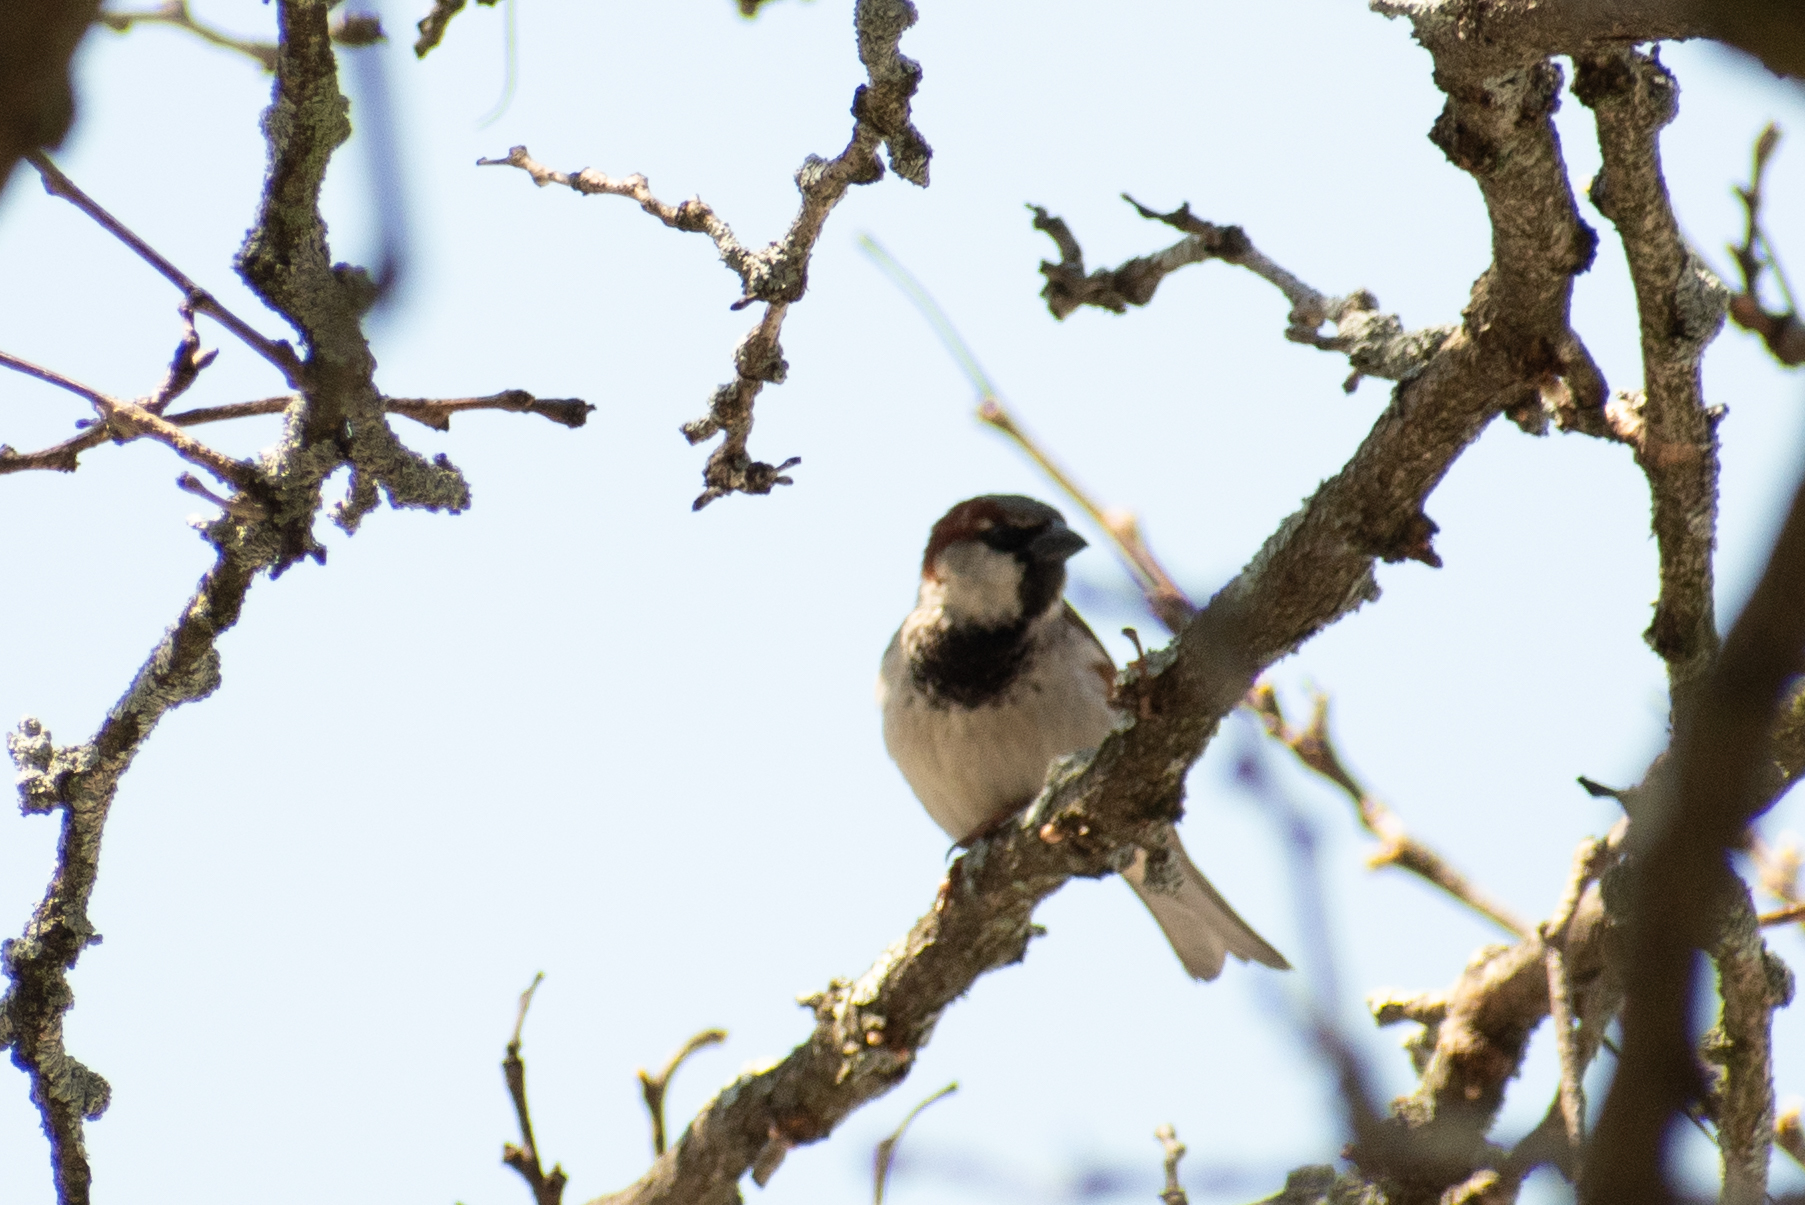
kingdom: Animalia
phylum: Chordata
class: Aves
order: Passeriformes
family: Passeridae
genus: Passer
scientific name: Passer domesticus
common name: House sparrow
